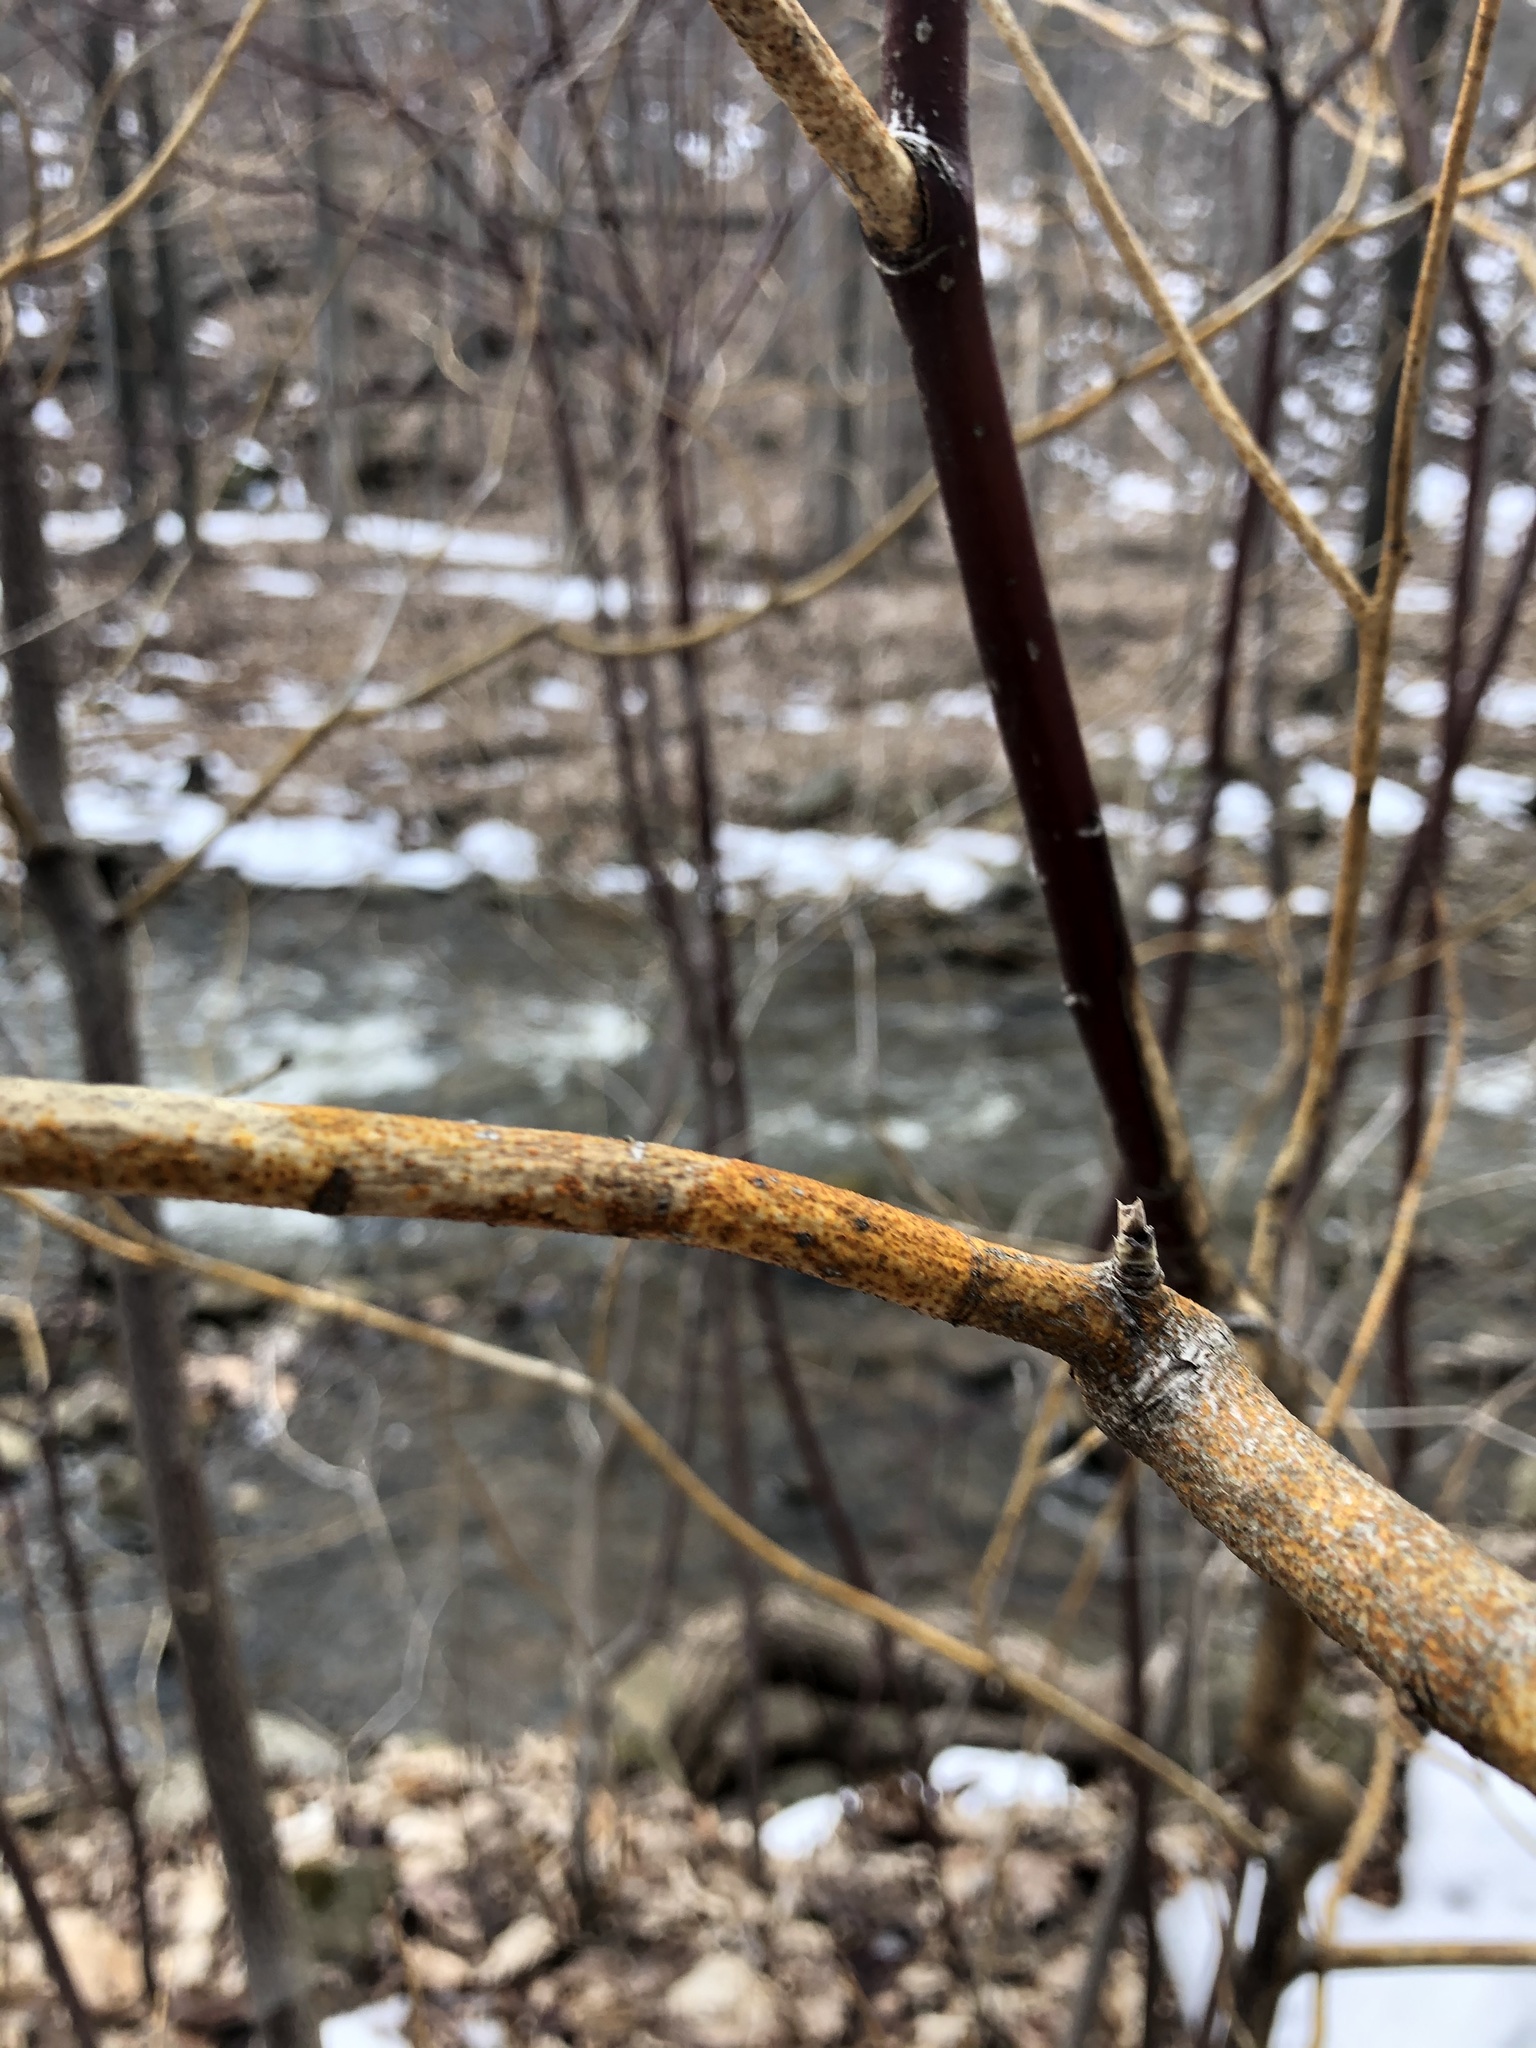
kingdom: Fungi
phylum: Ascomycota
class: Sordariomycetes
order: Diaporthales
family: Cryphonectriaceae
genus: Aurantioporthe
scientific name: Aurantioporthe corni
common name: Dogwood golden canker
